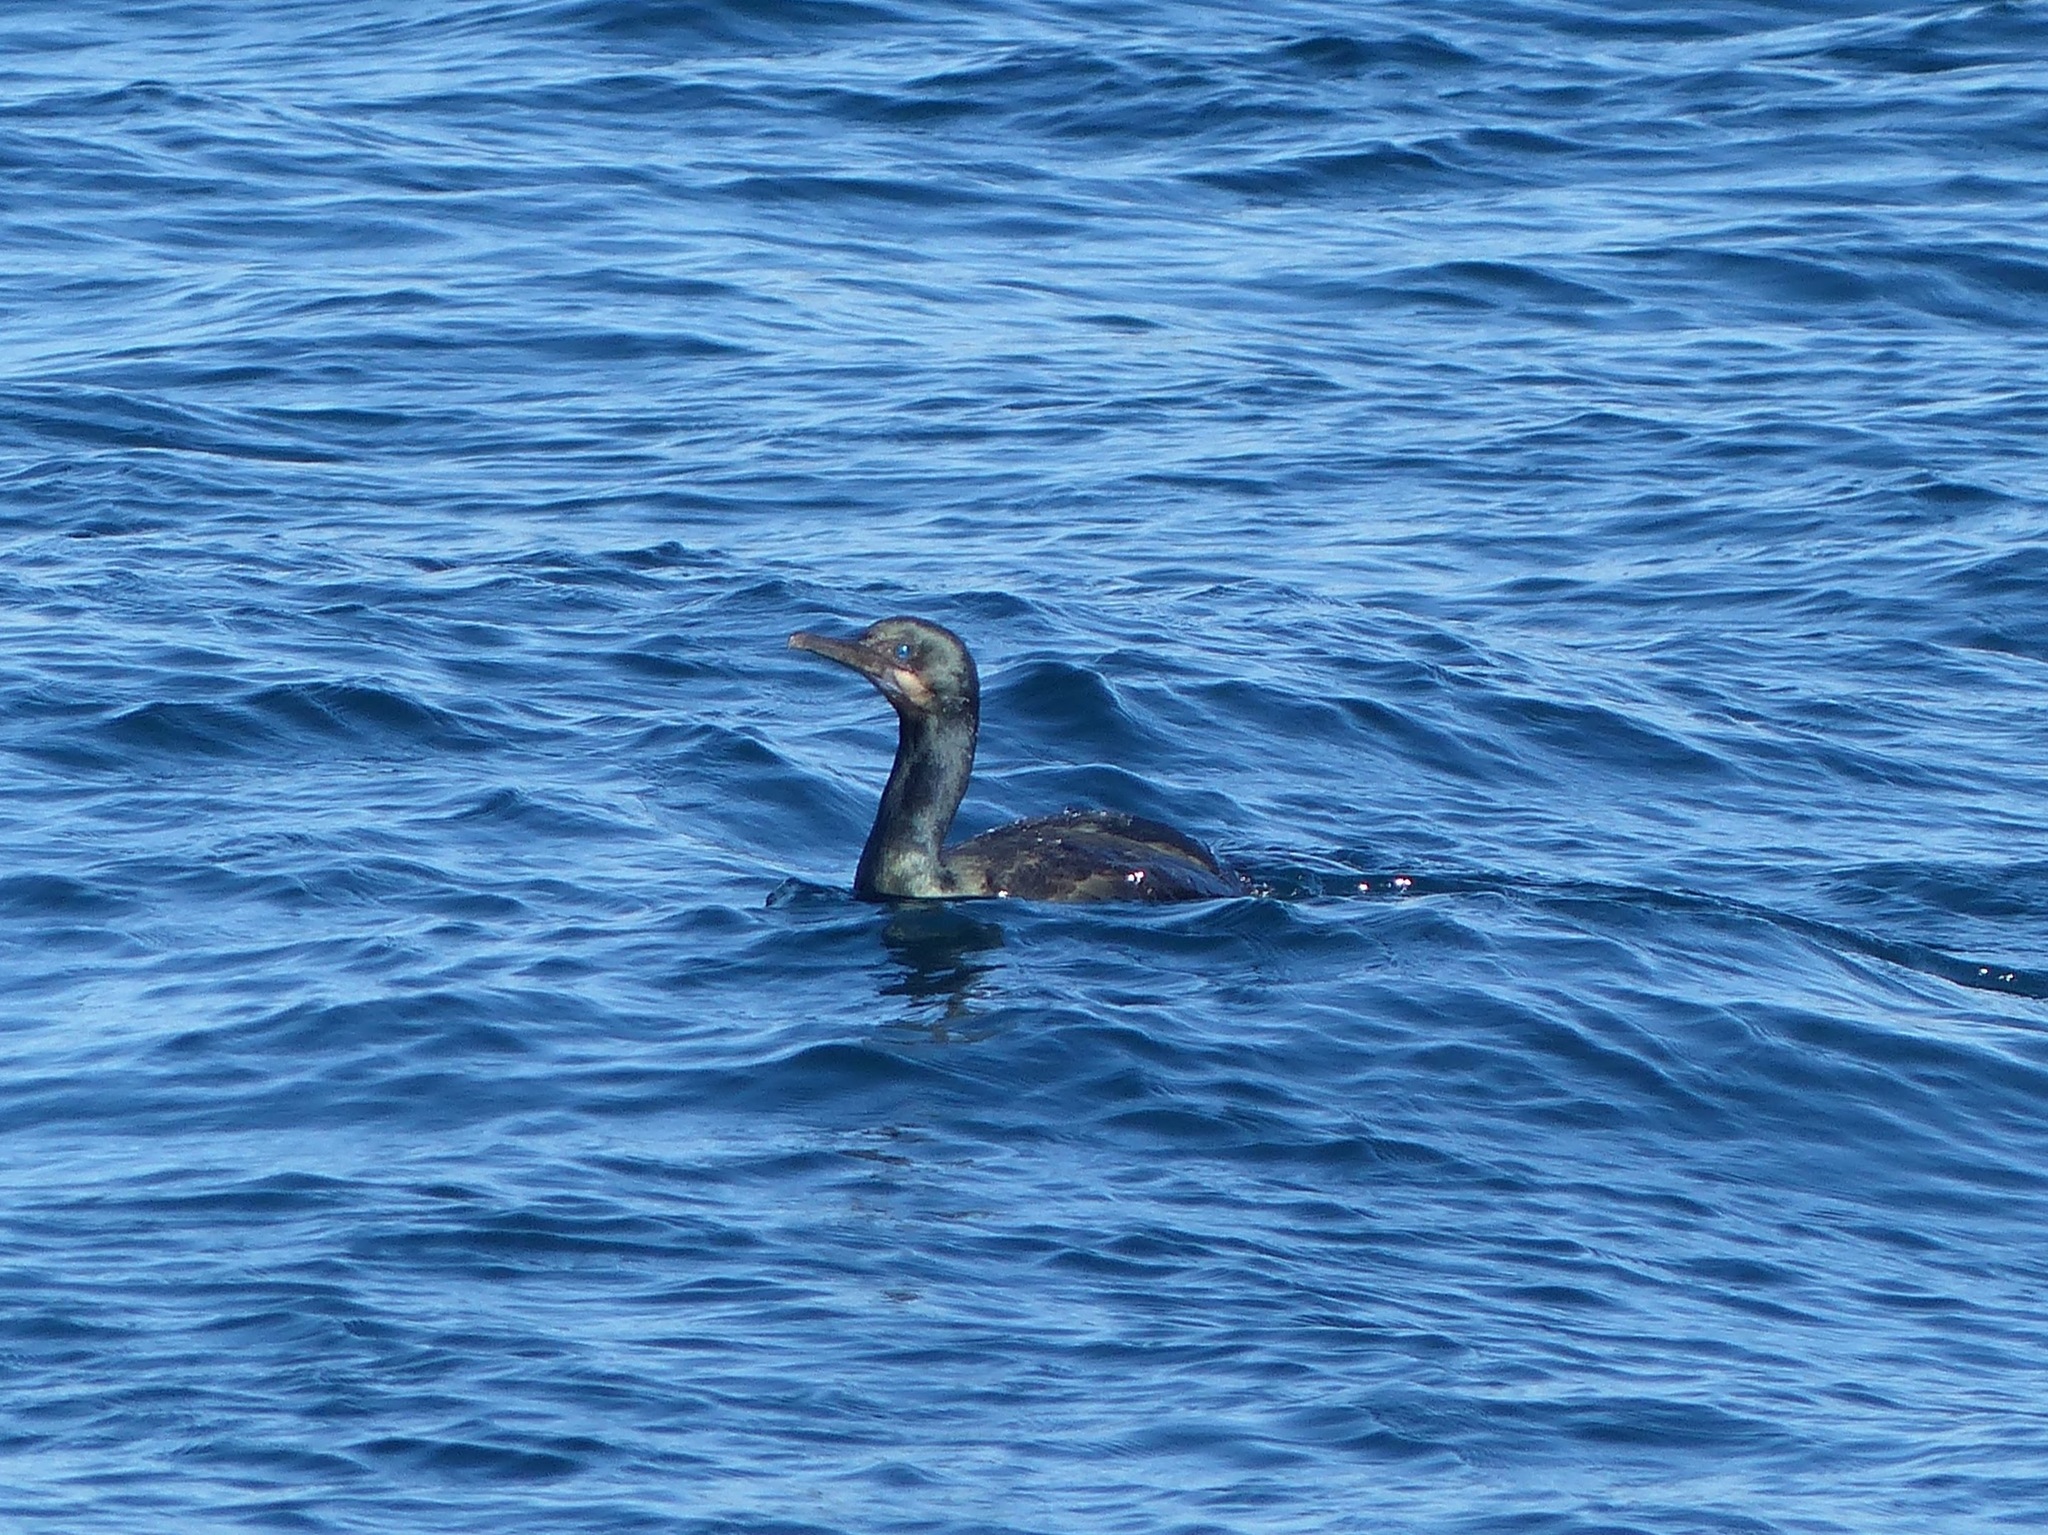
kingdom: Animalia
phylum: Chordata
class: Aves
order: Suliformes
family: Phalacrocoracidae
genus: Urile
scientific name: Urile penicillatus
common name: Brandt's cormorant
